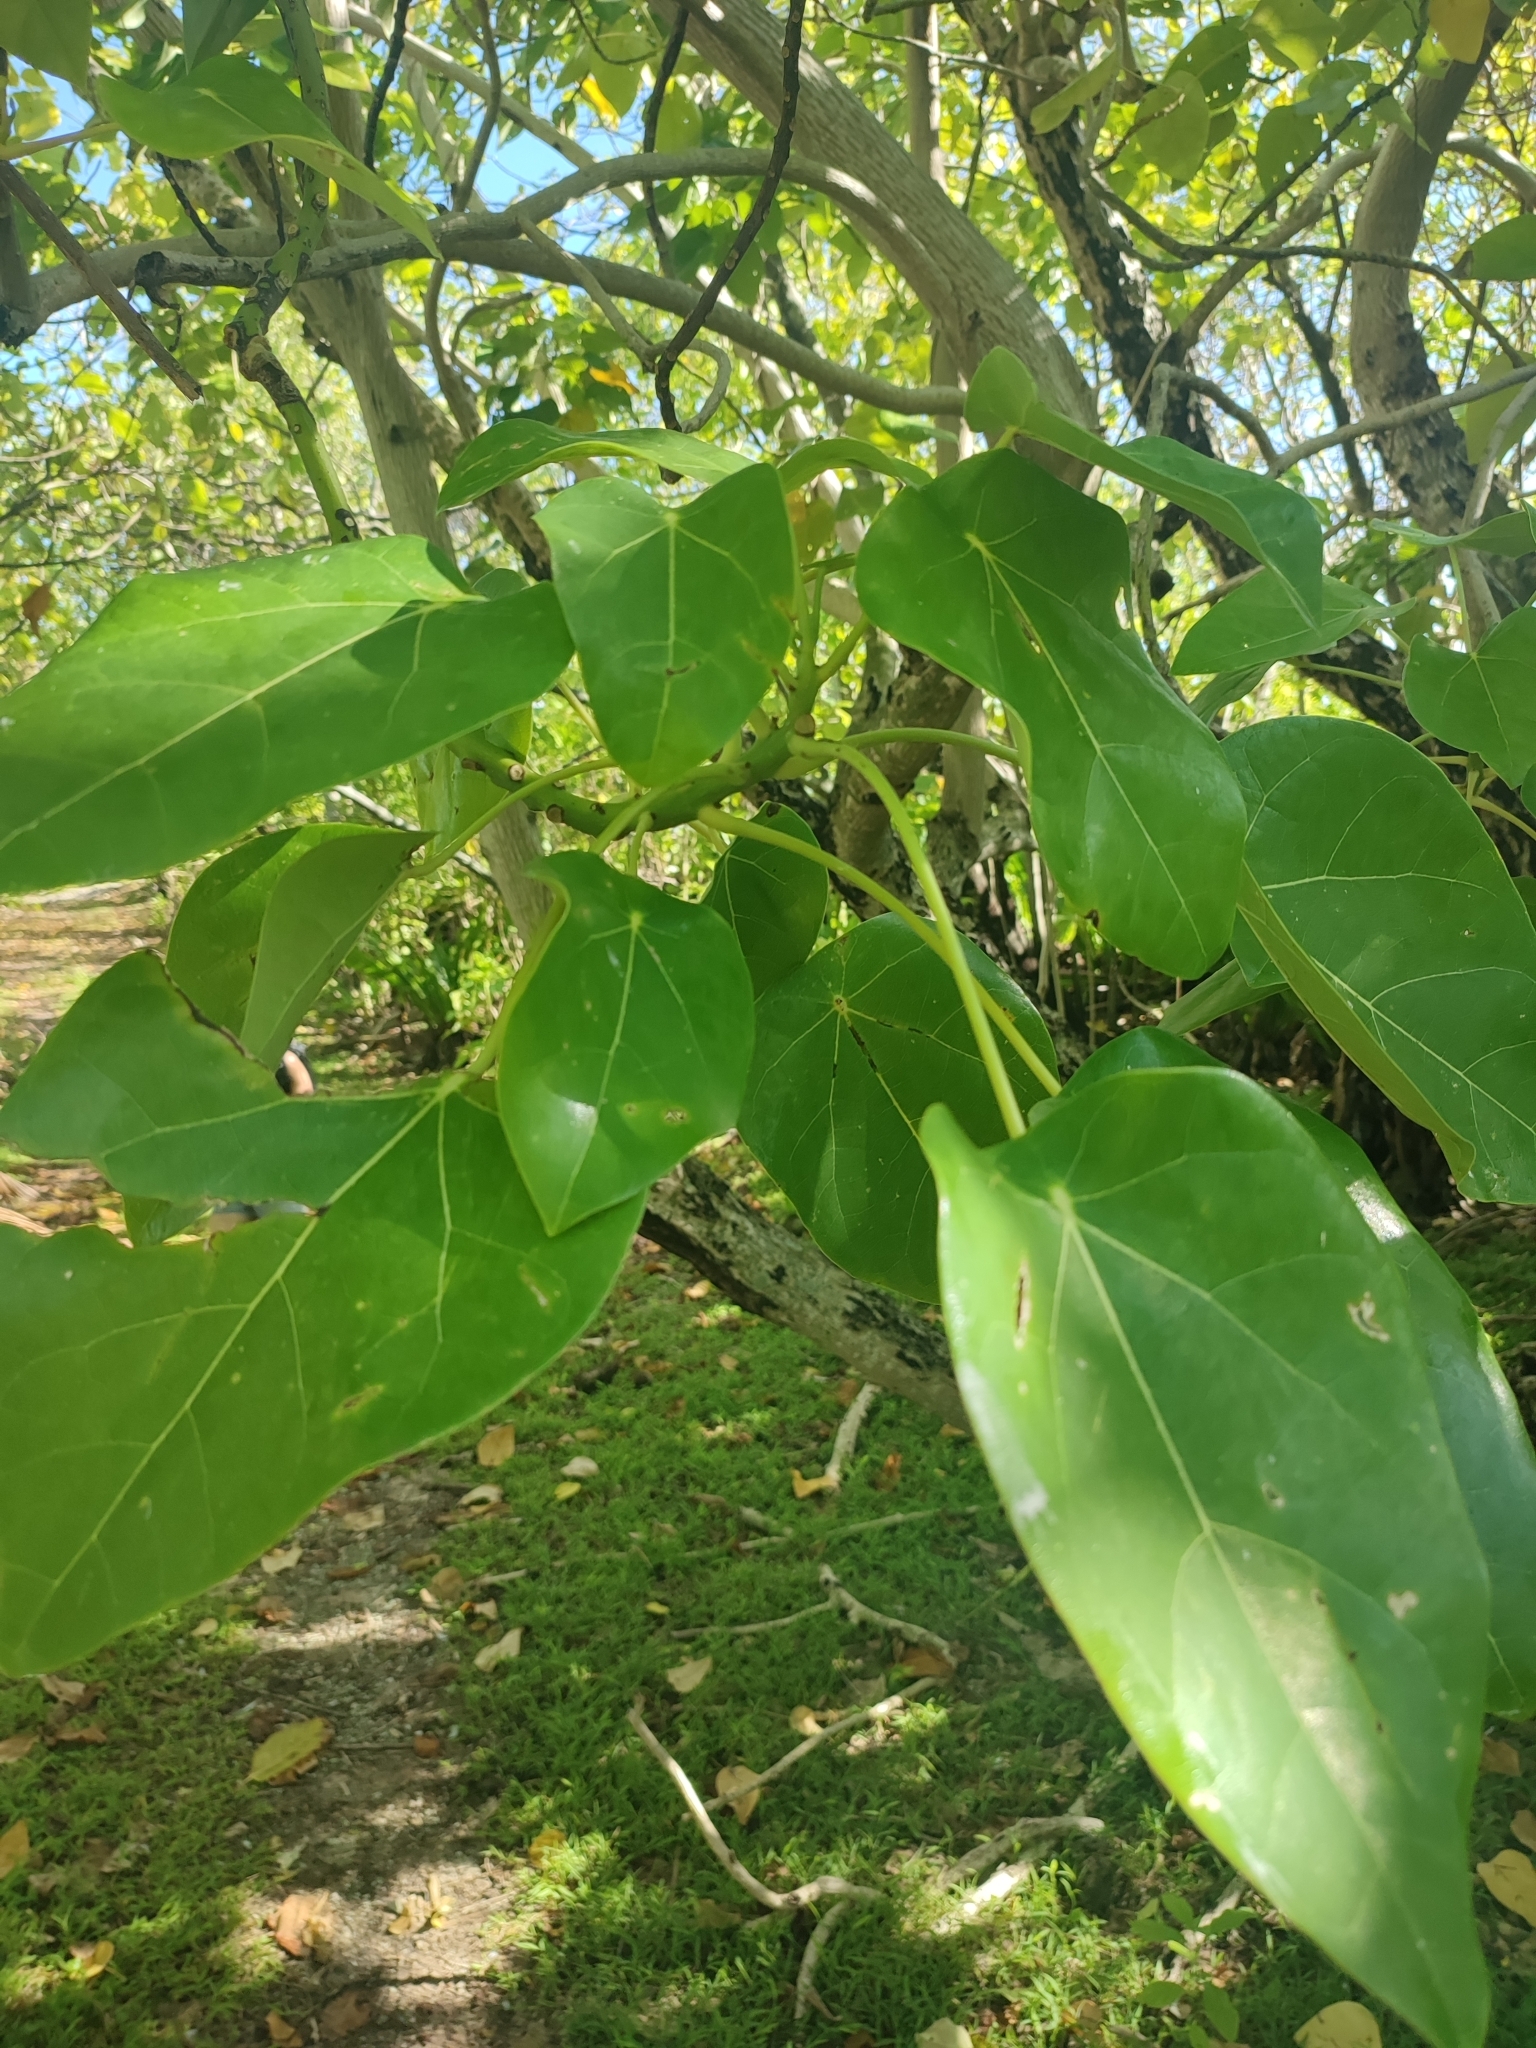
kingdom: Plantae
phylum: Tracheophyta
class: Magnoliopsida
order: Laurales
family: Hernandiaceae
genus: Hernandia
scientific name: Hernandia nymphaeifolia
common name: Sea hearse
